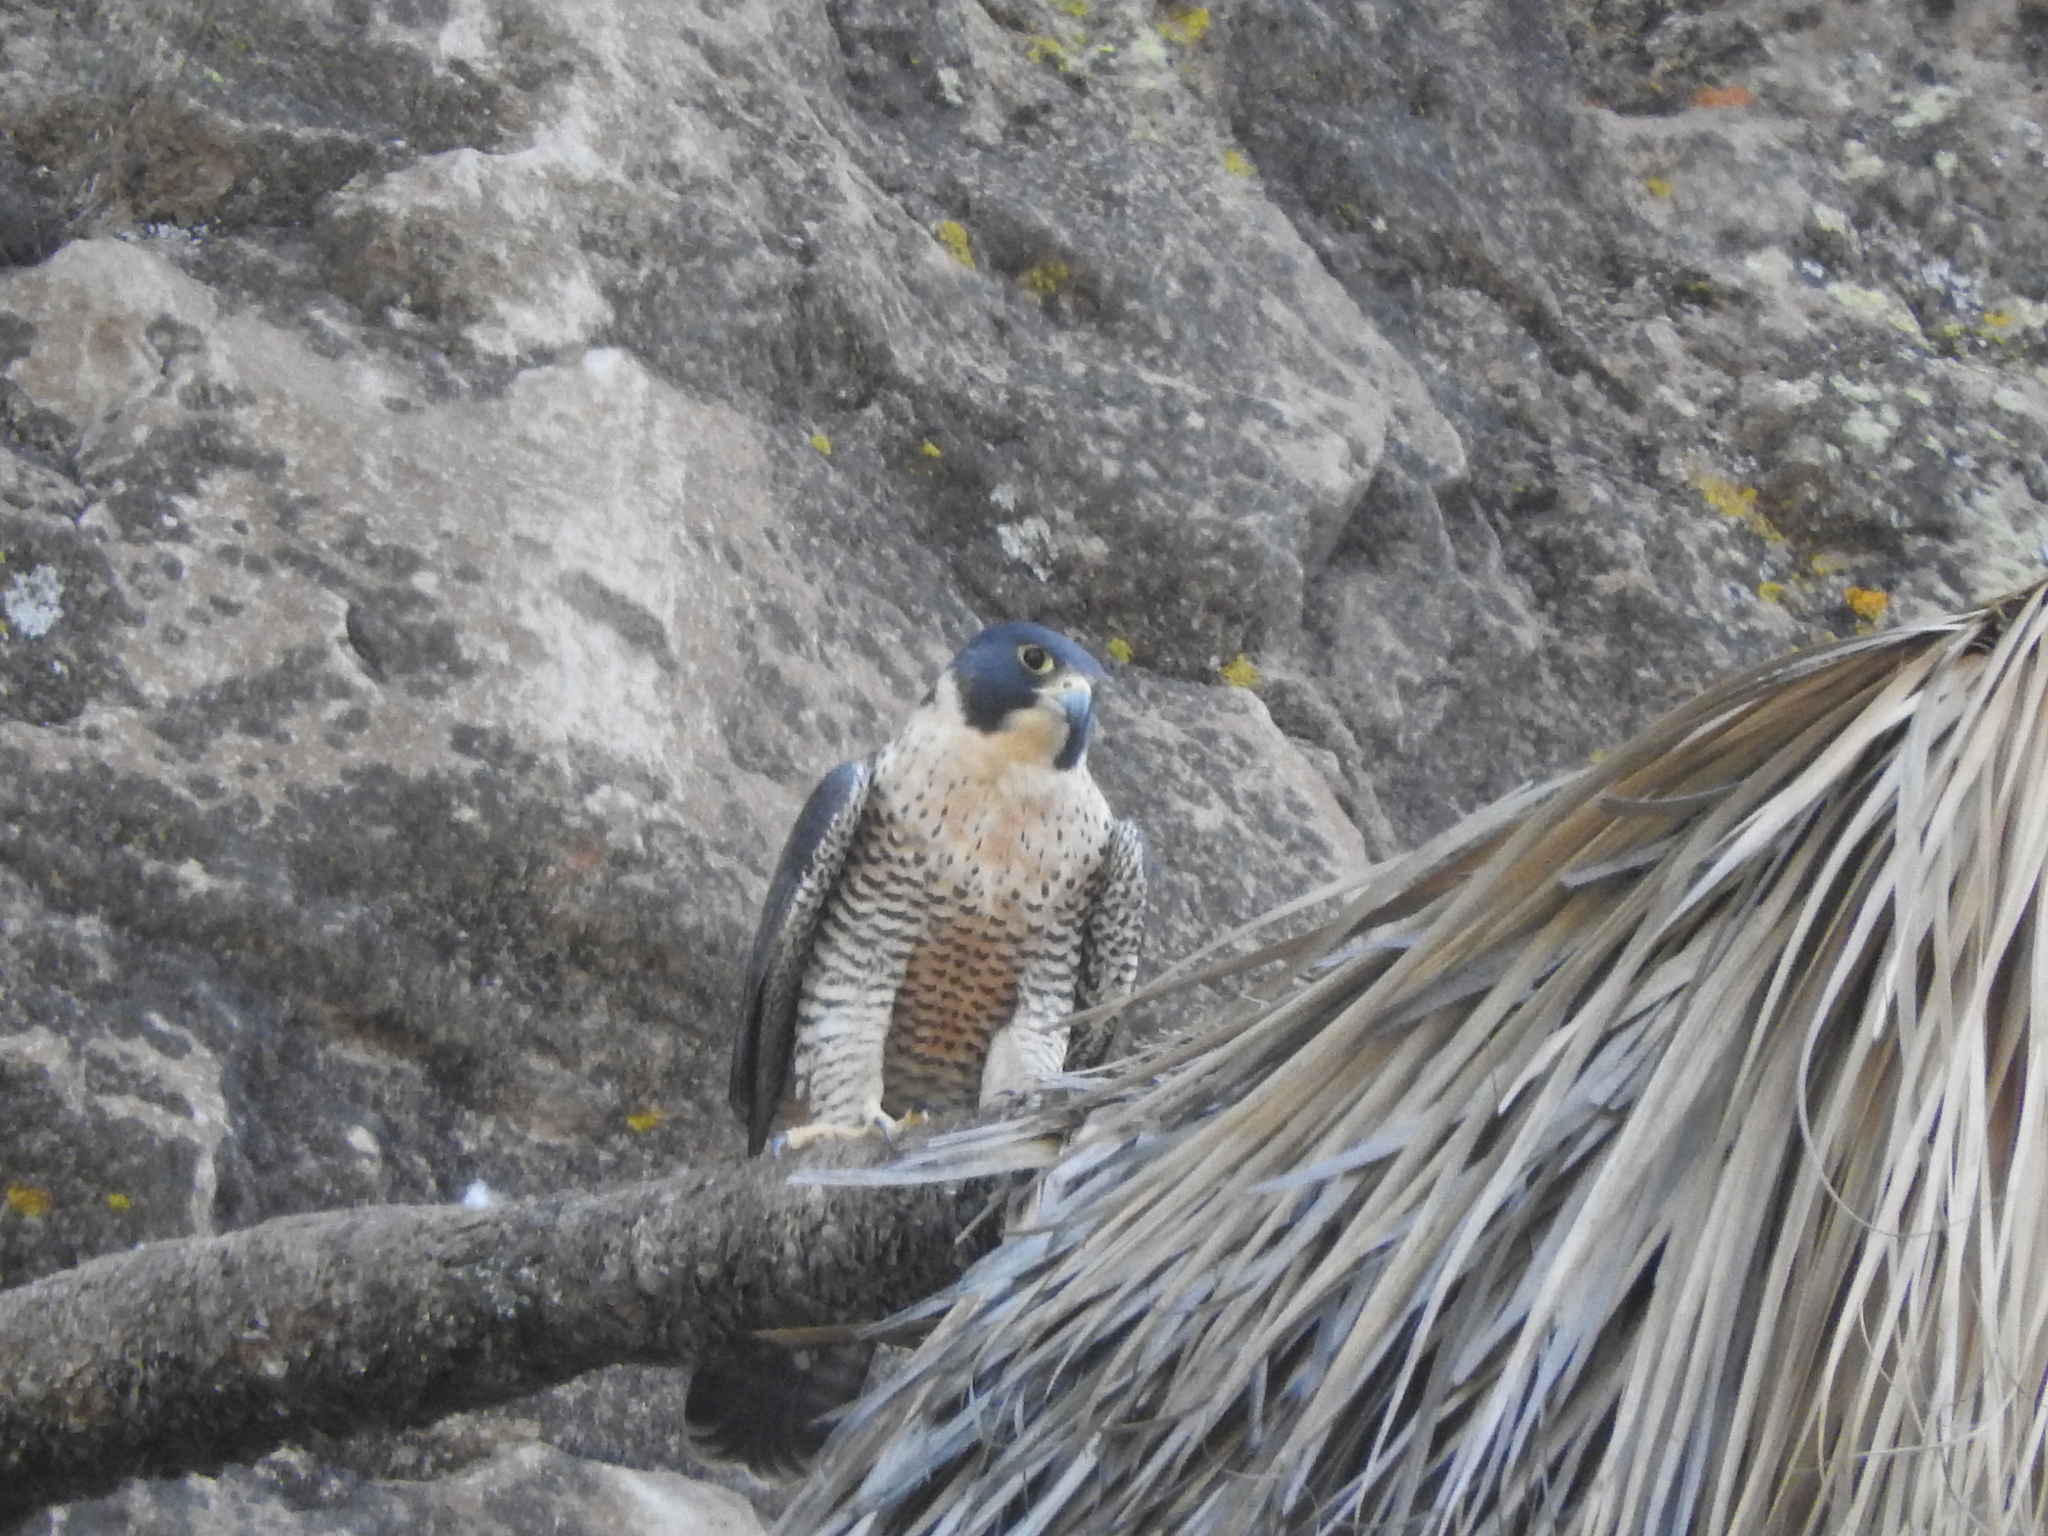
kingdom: Animalia
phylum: Chordata
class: Aves
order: Falconiformes
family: Falconidae
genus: Falco
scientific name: Falco peregrinus
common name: Peregrine falcon
